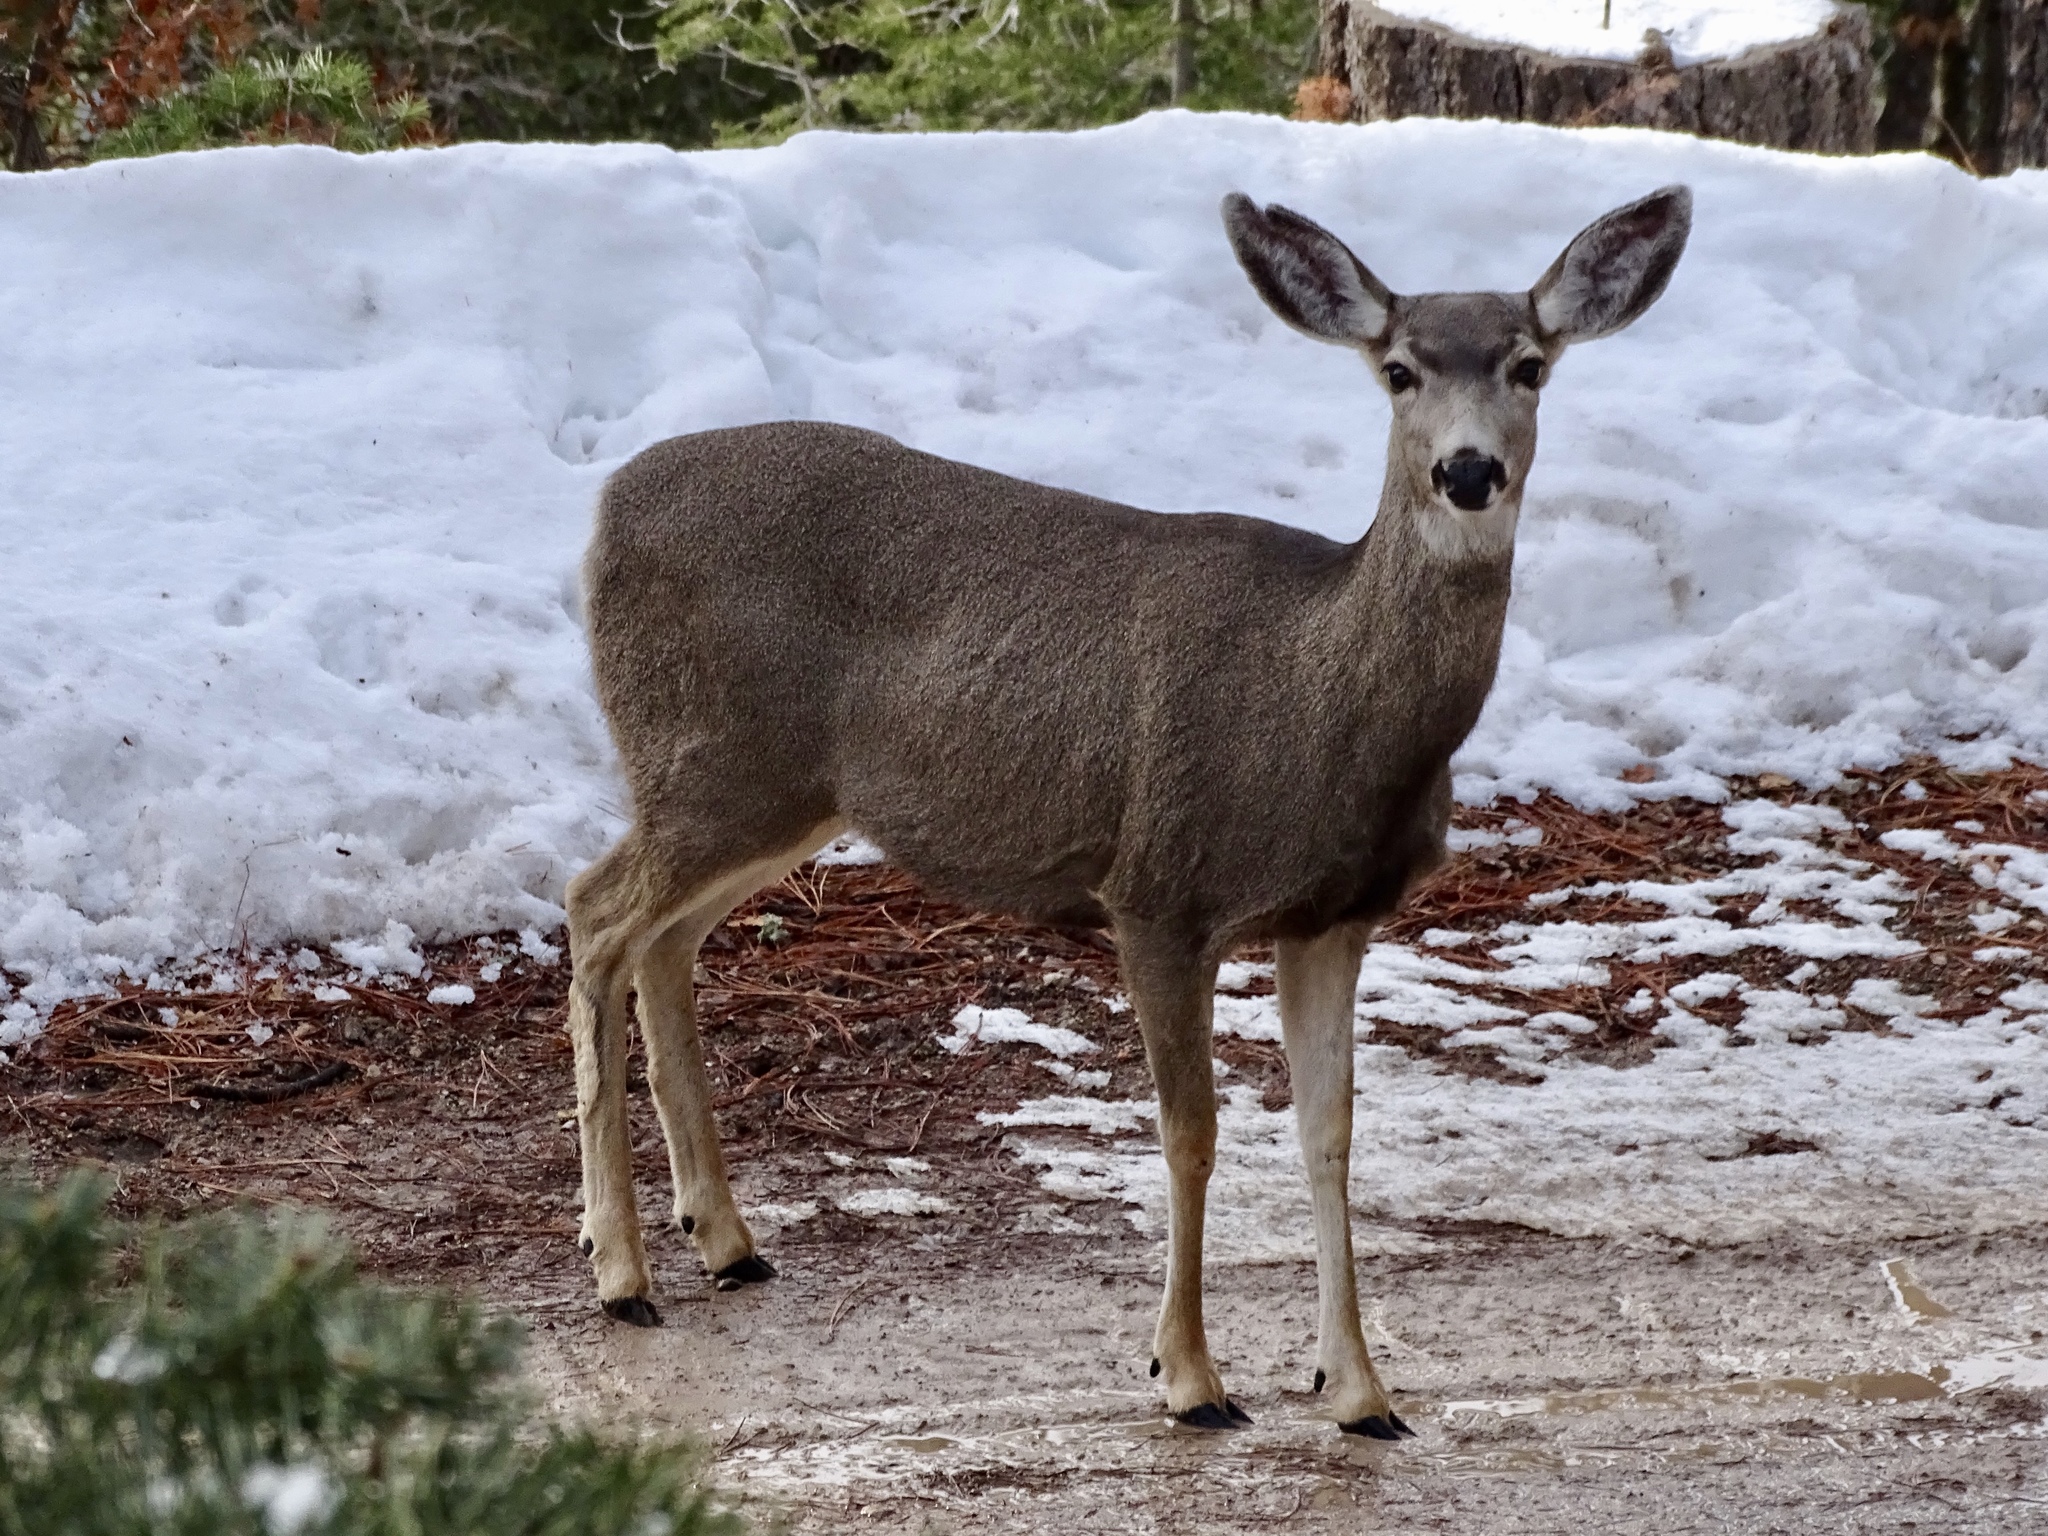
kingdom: Animalia
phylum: Chordata
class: Mammalia
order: Artiodactyla
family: Cervidae
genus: Odocoileus
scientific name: Odocoileus hemionus
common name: Mule deer
